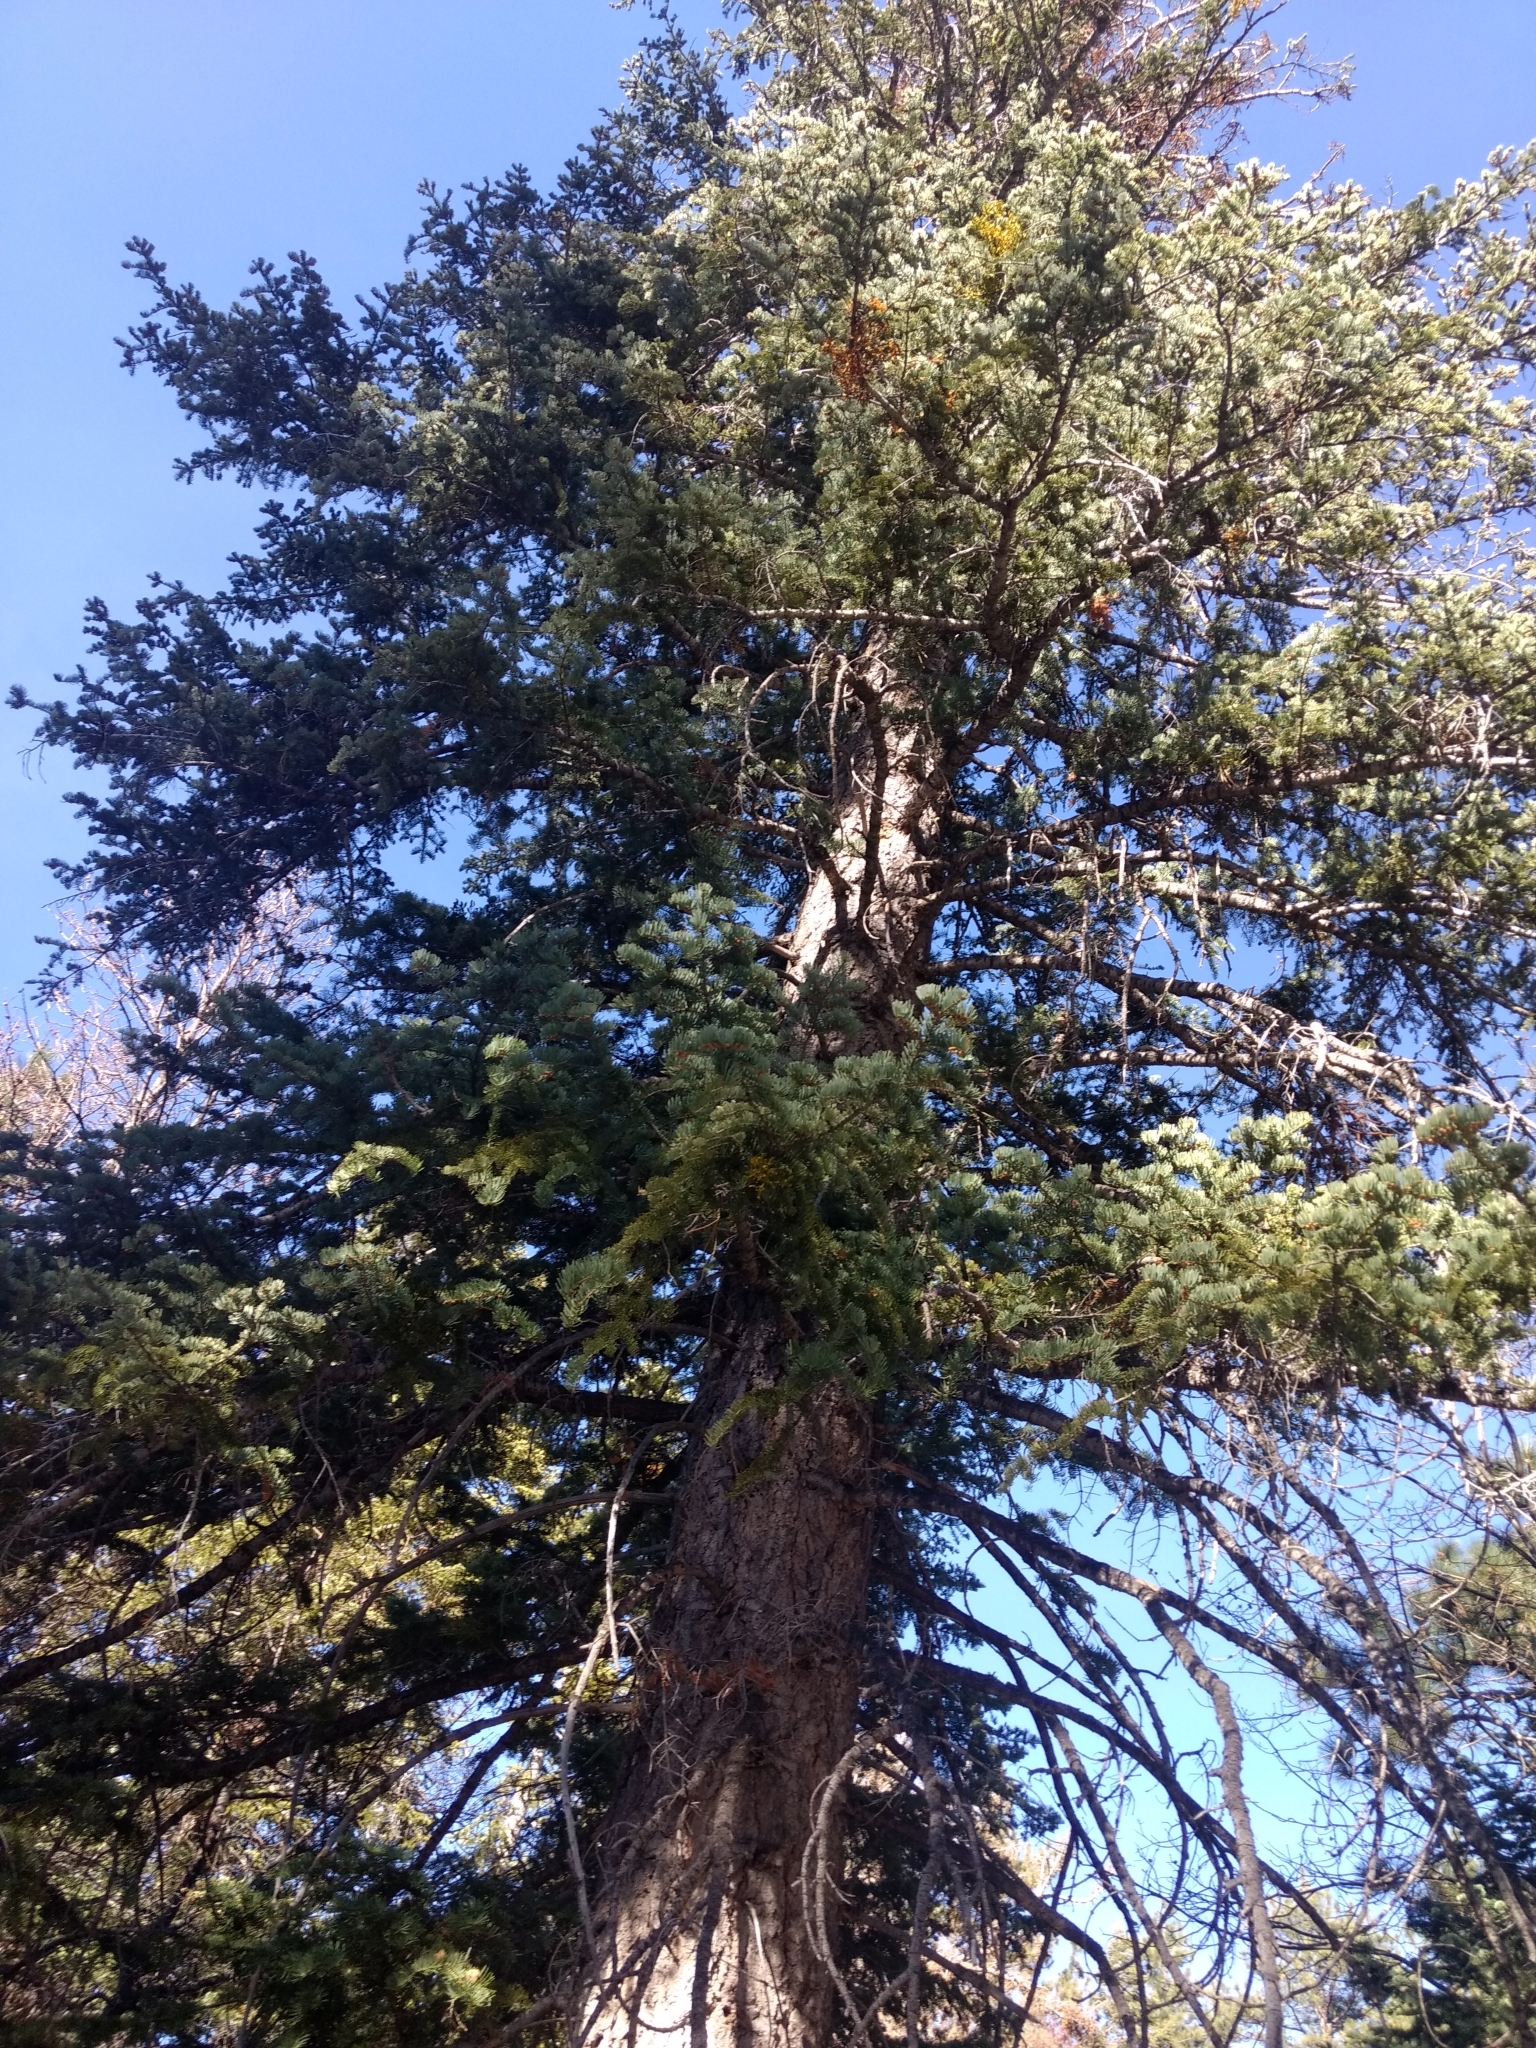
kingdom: Plantae
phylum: Tracheophyta
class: Pinopsida
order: Pinales
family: Pinaceae
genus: Abies
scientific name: Abies concolor
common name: Colorado fir
